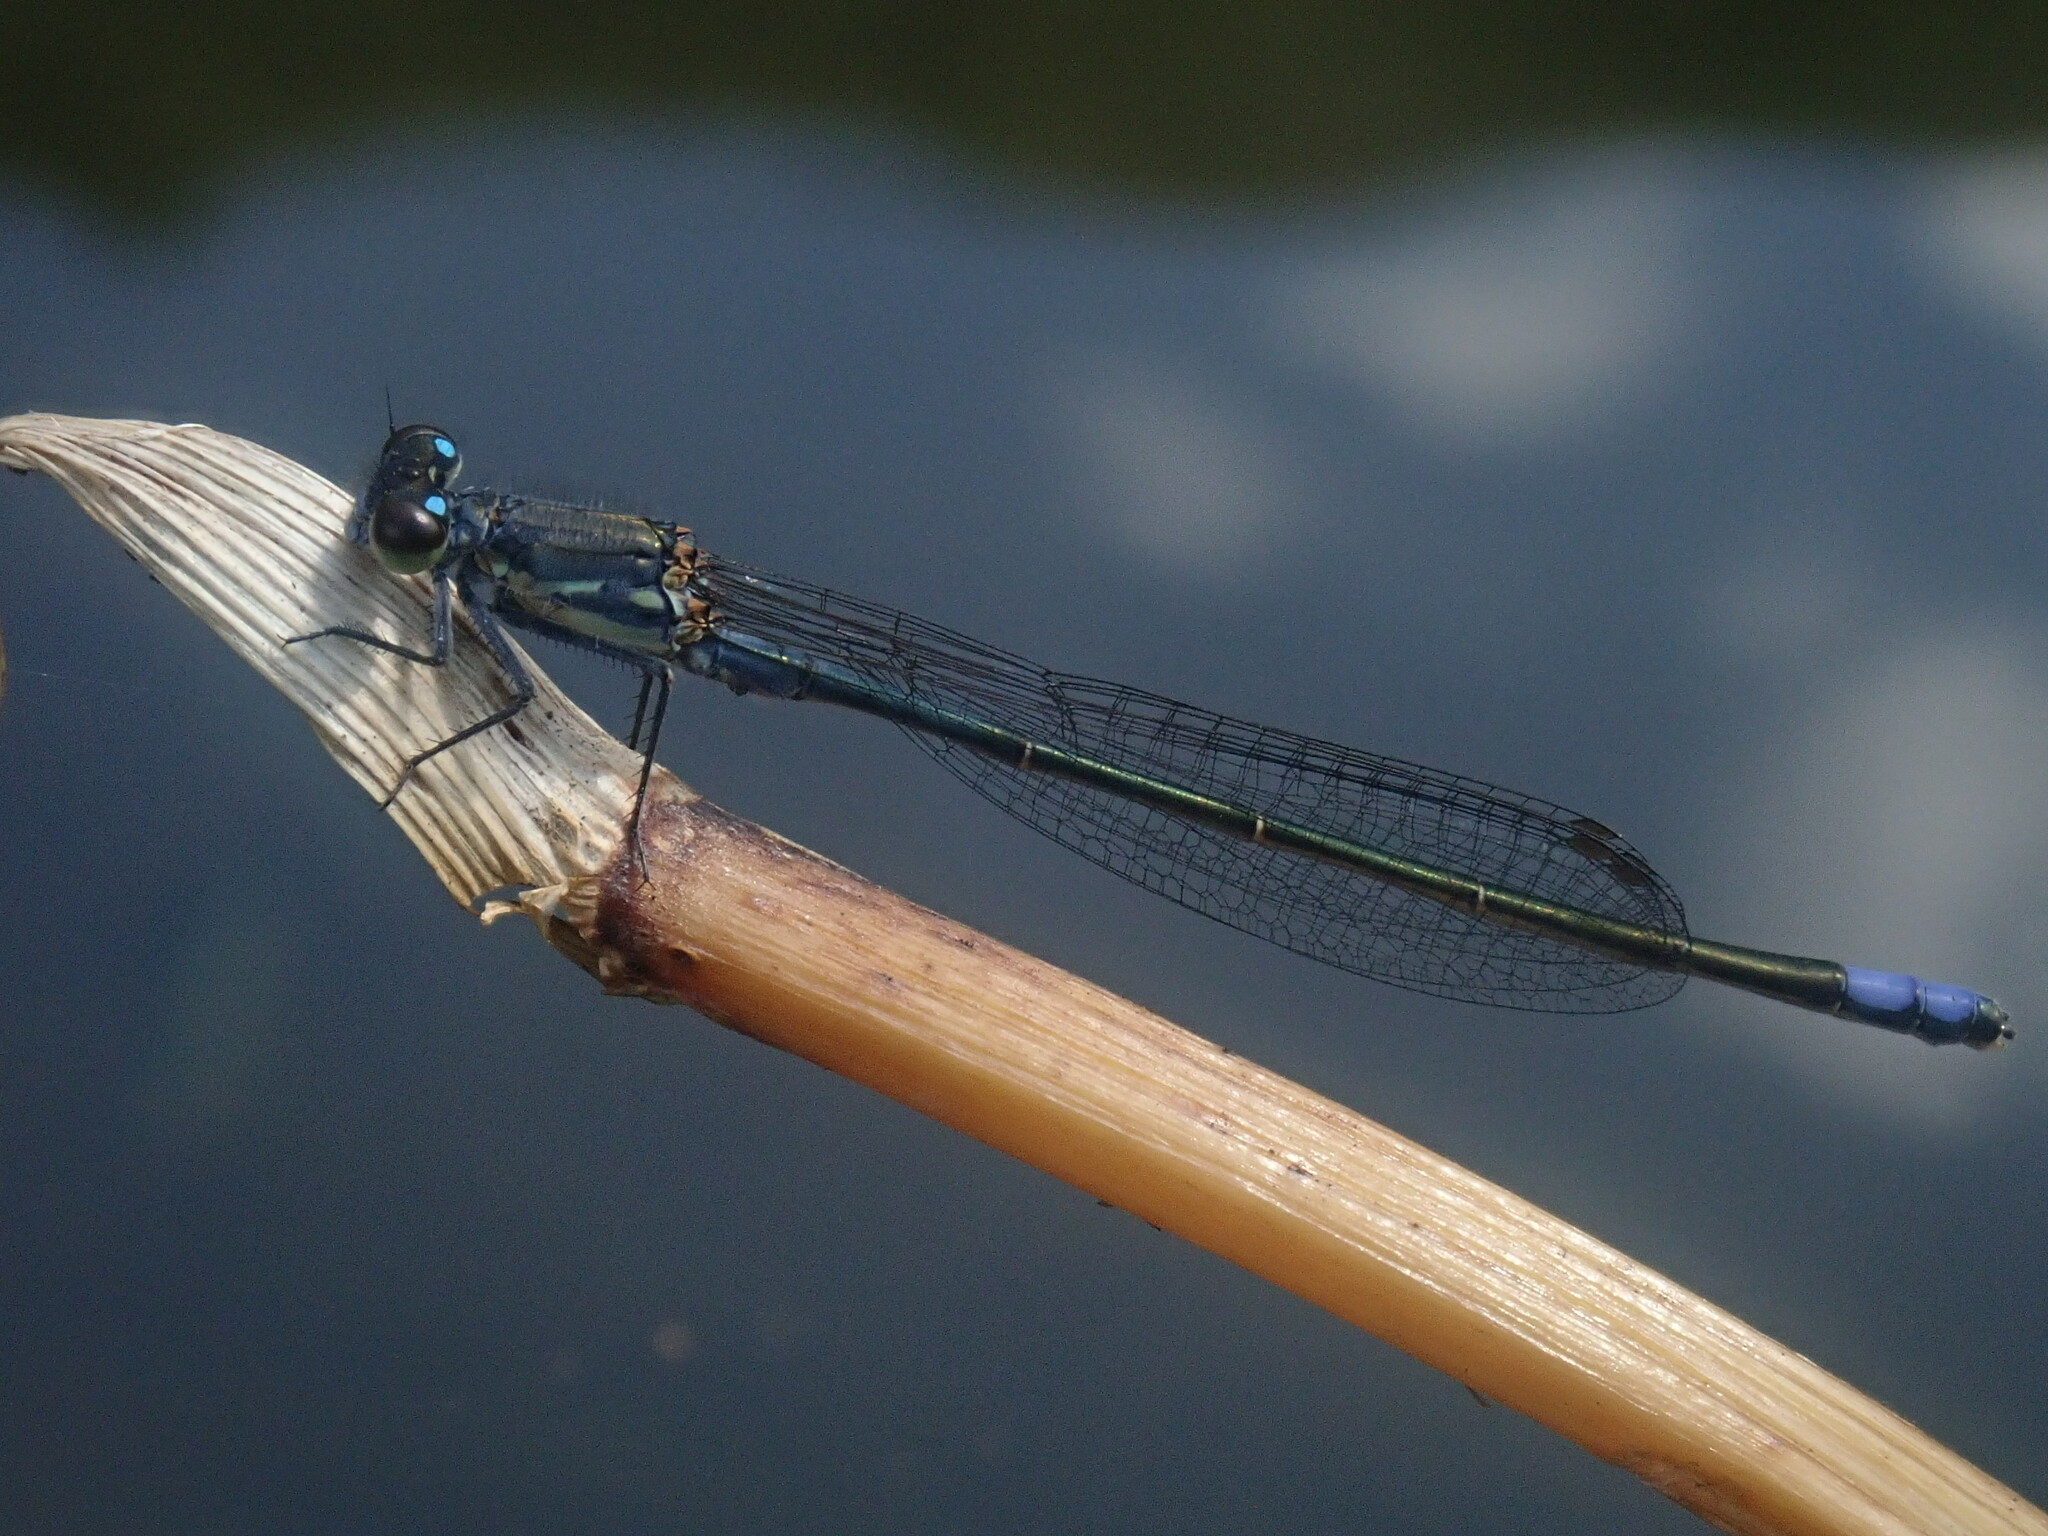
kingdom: Animalia
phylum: Arthropoda
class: Insecta
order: Odonata
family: Coenagrionidae
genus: Pseudagrion
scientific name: Pseudagrion salisburyense
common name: Slate sprite
